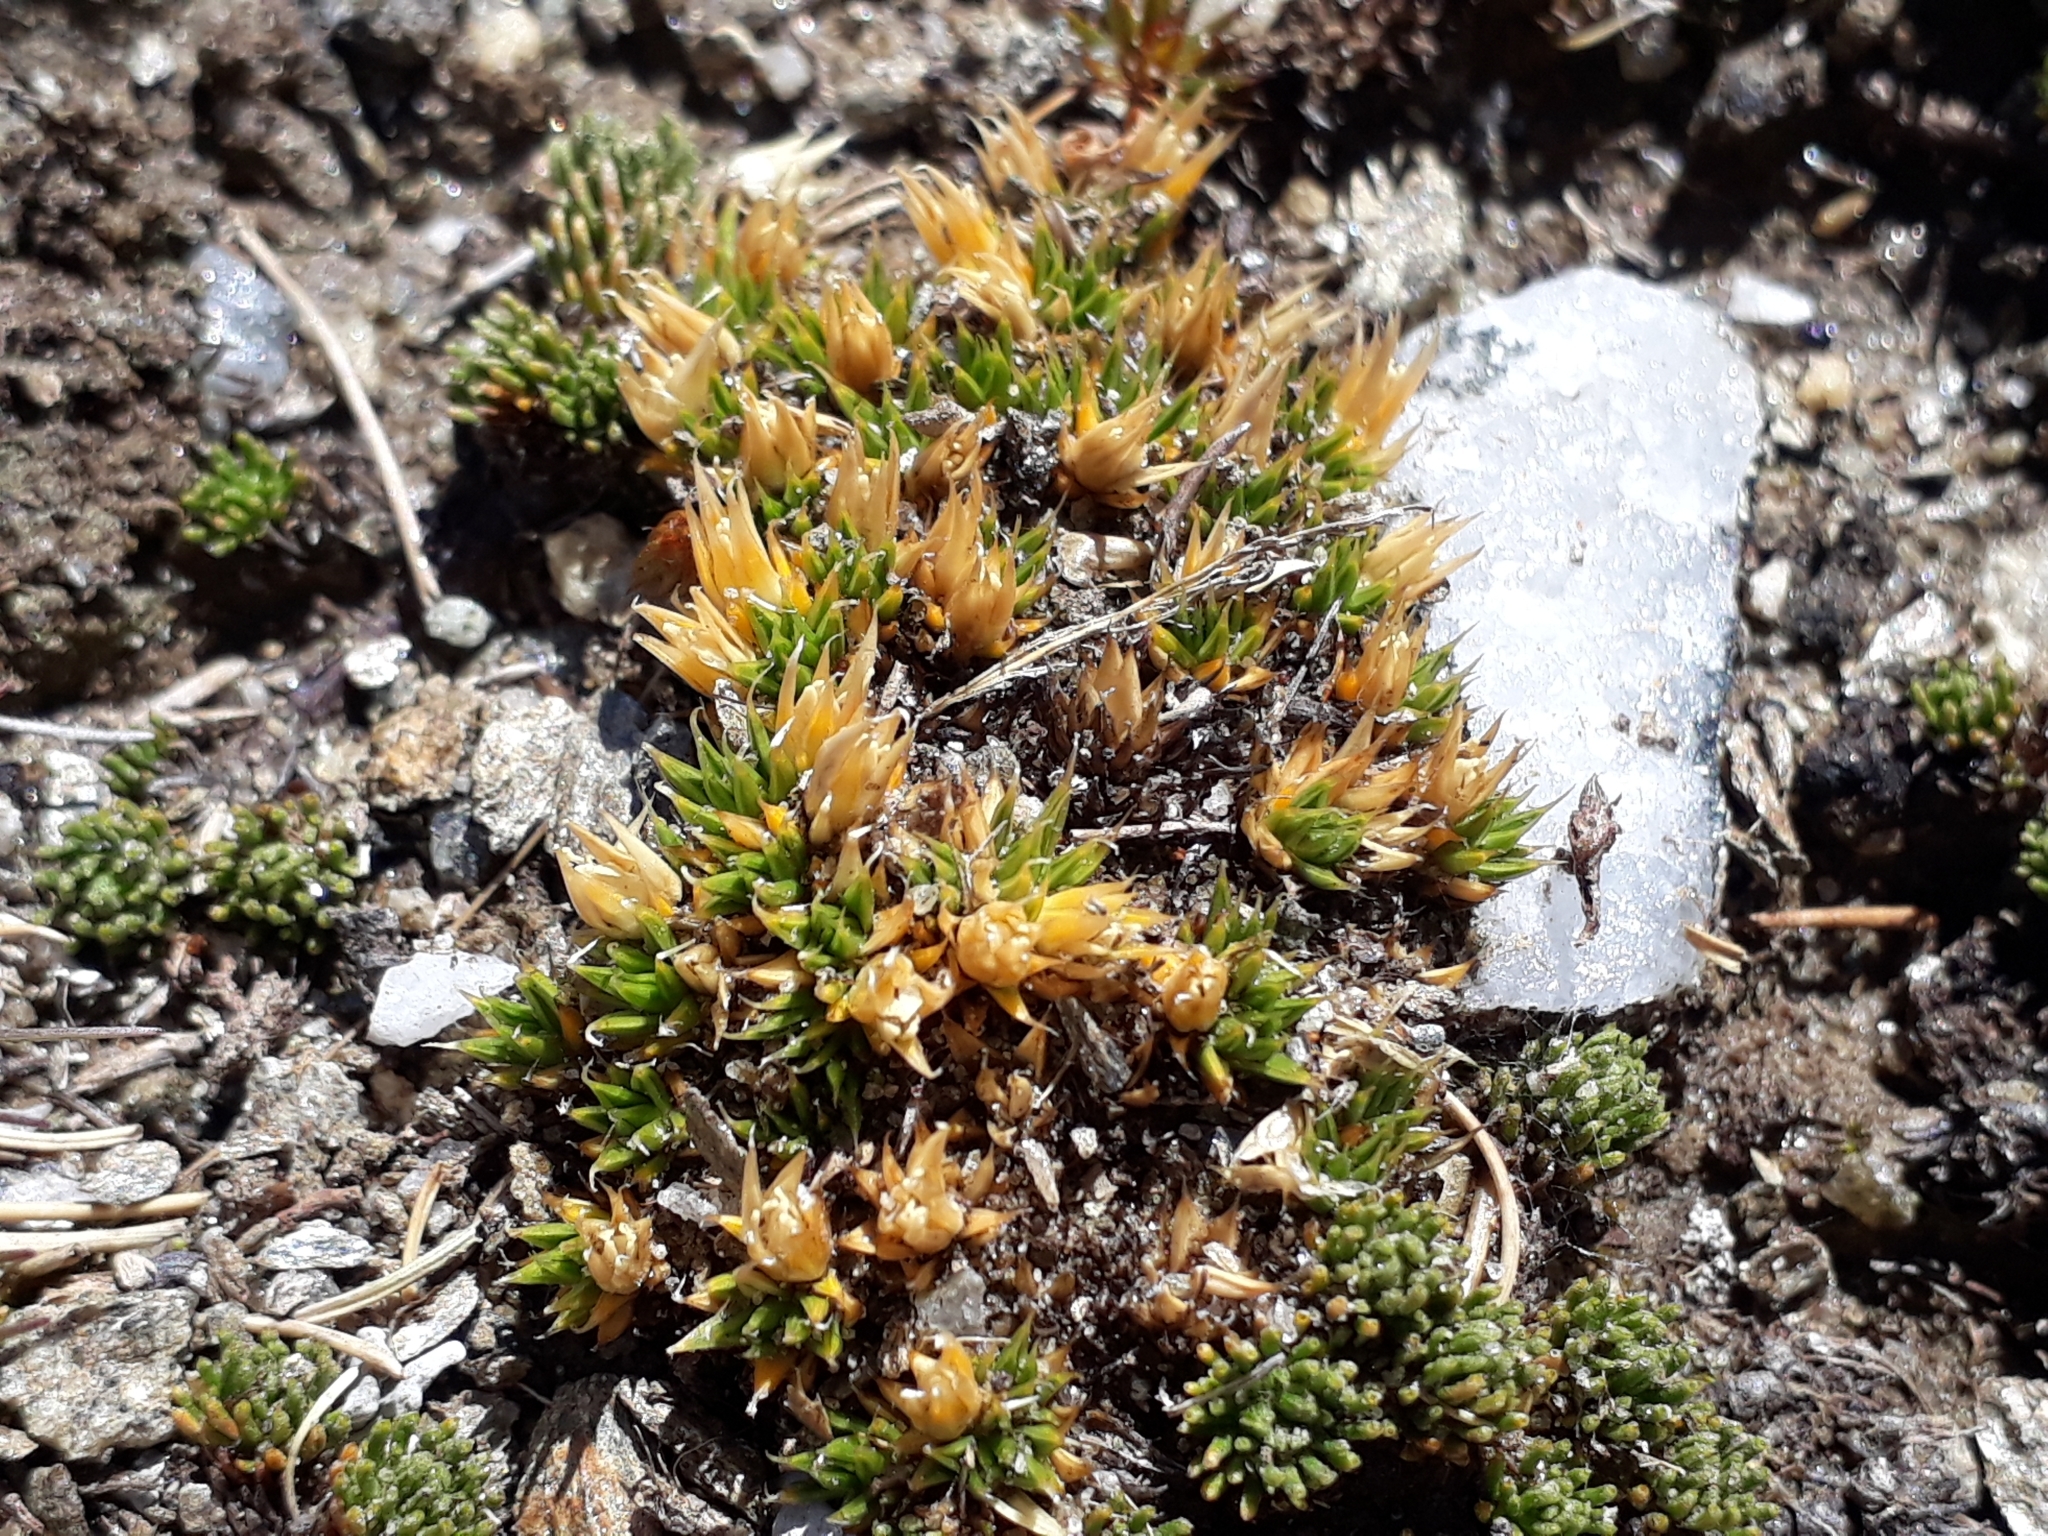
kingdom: Plantae
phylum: Tracheophyta
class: Magnoliopsida
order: Caryophyllales
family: Caryophyllaceae
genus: Colobanthus
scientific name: Colobanthus buchananii
